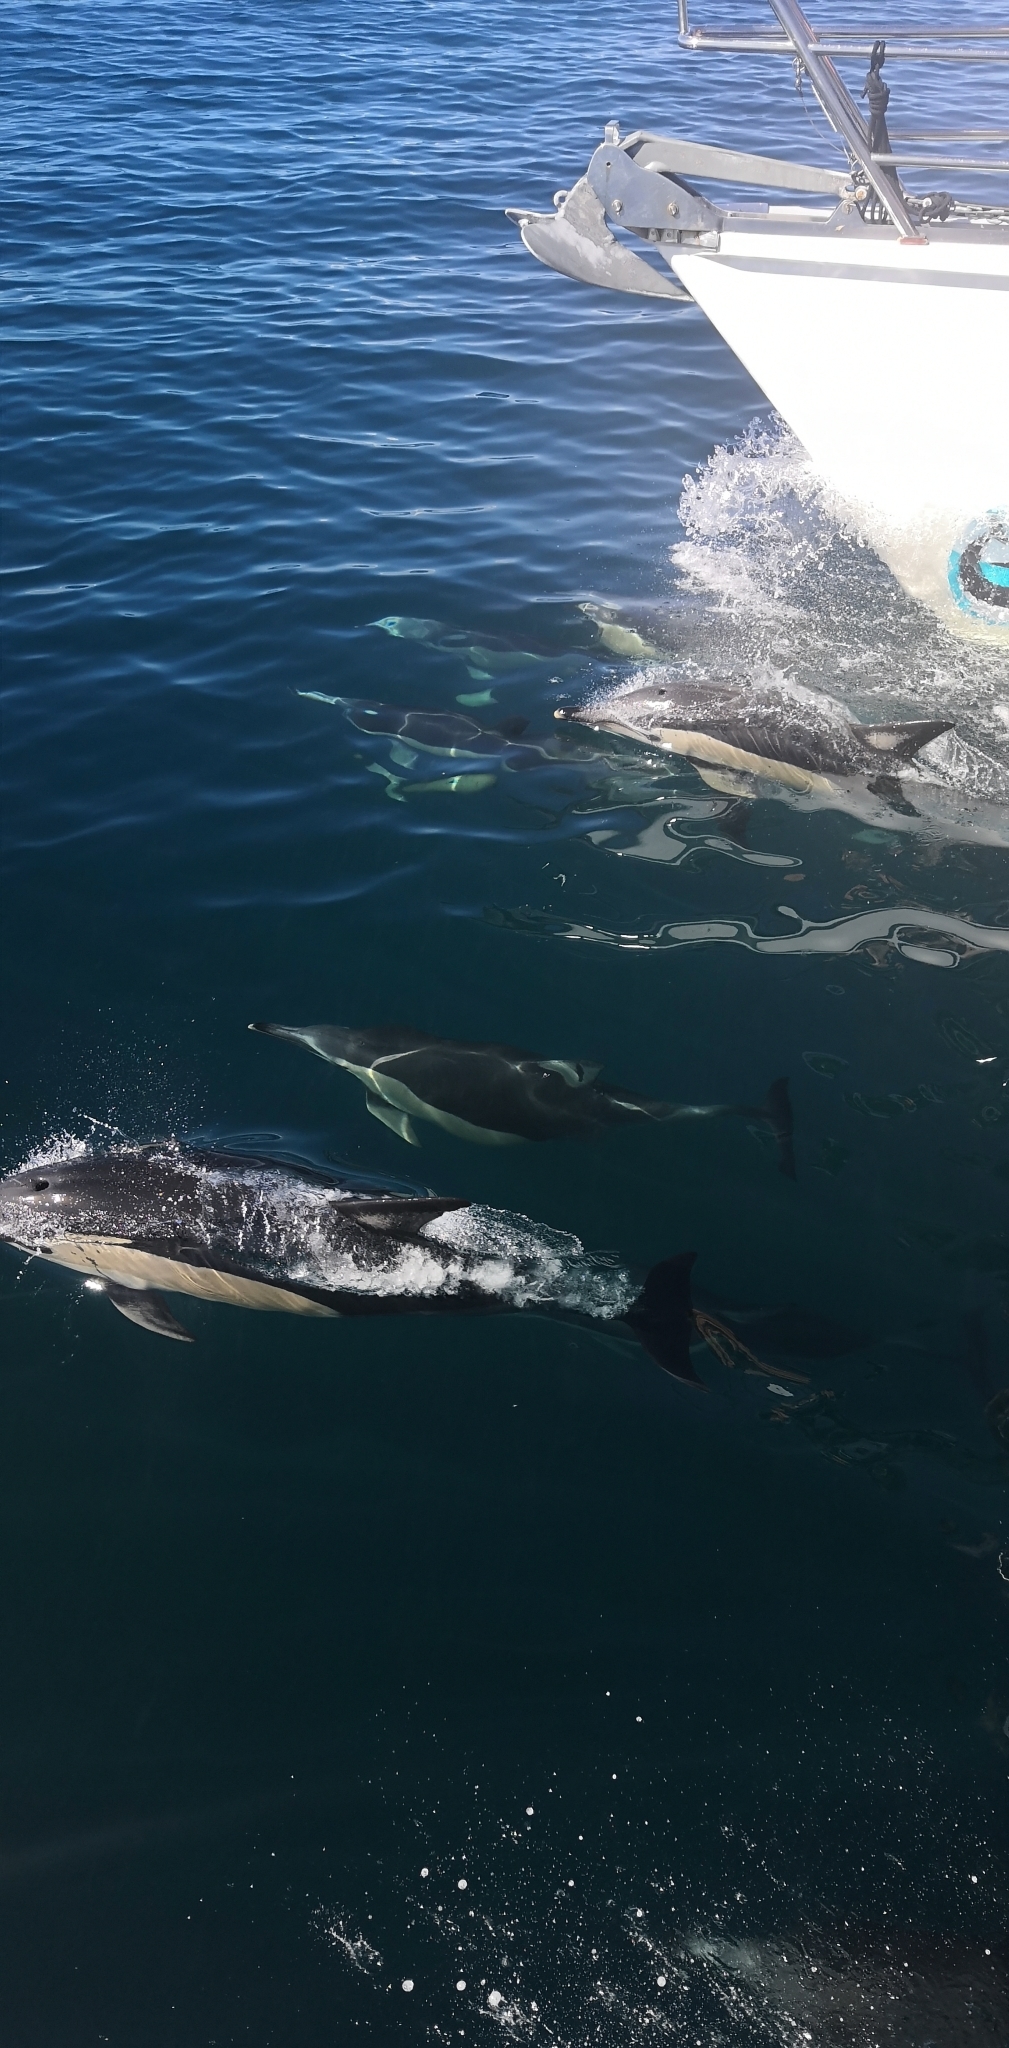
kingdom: Animalia
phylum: Chordata
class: Mammalia
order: Cetacea
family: Delphinidae
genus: Delphinus
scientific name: Delphinus delphis
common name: Common dolphin
